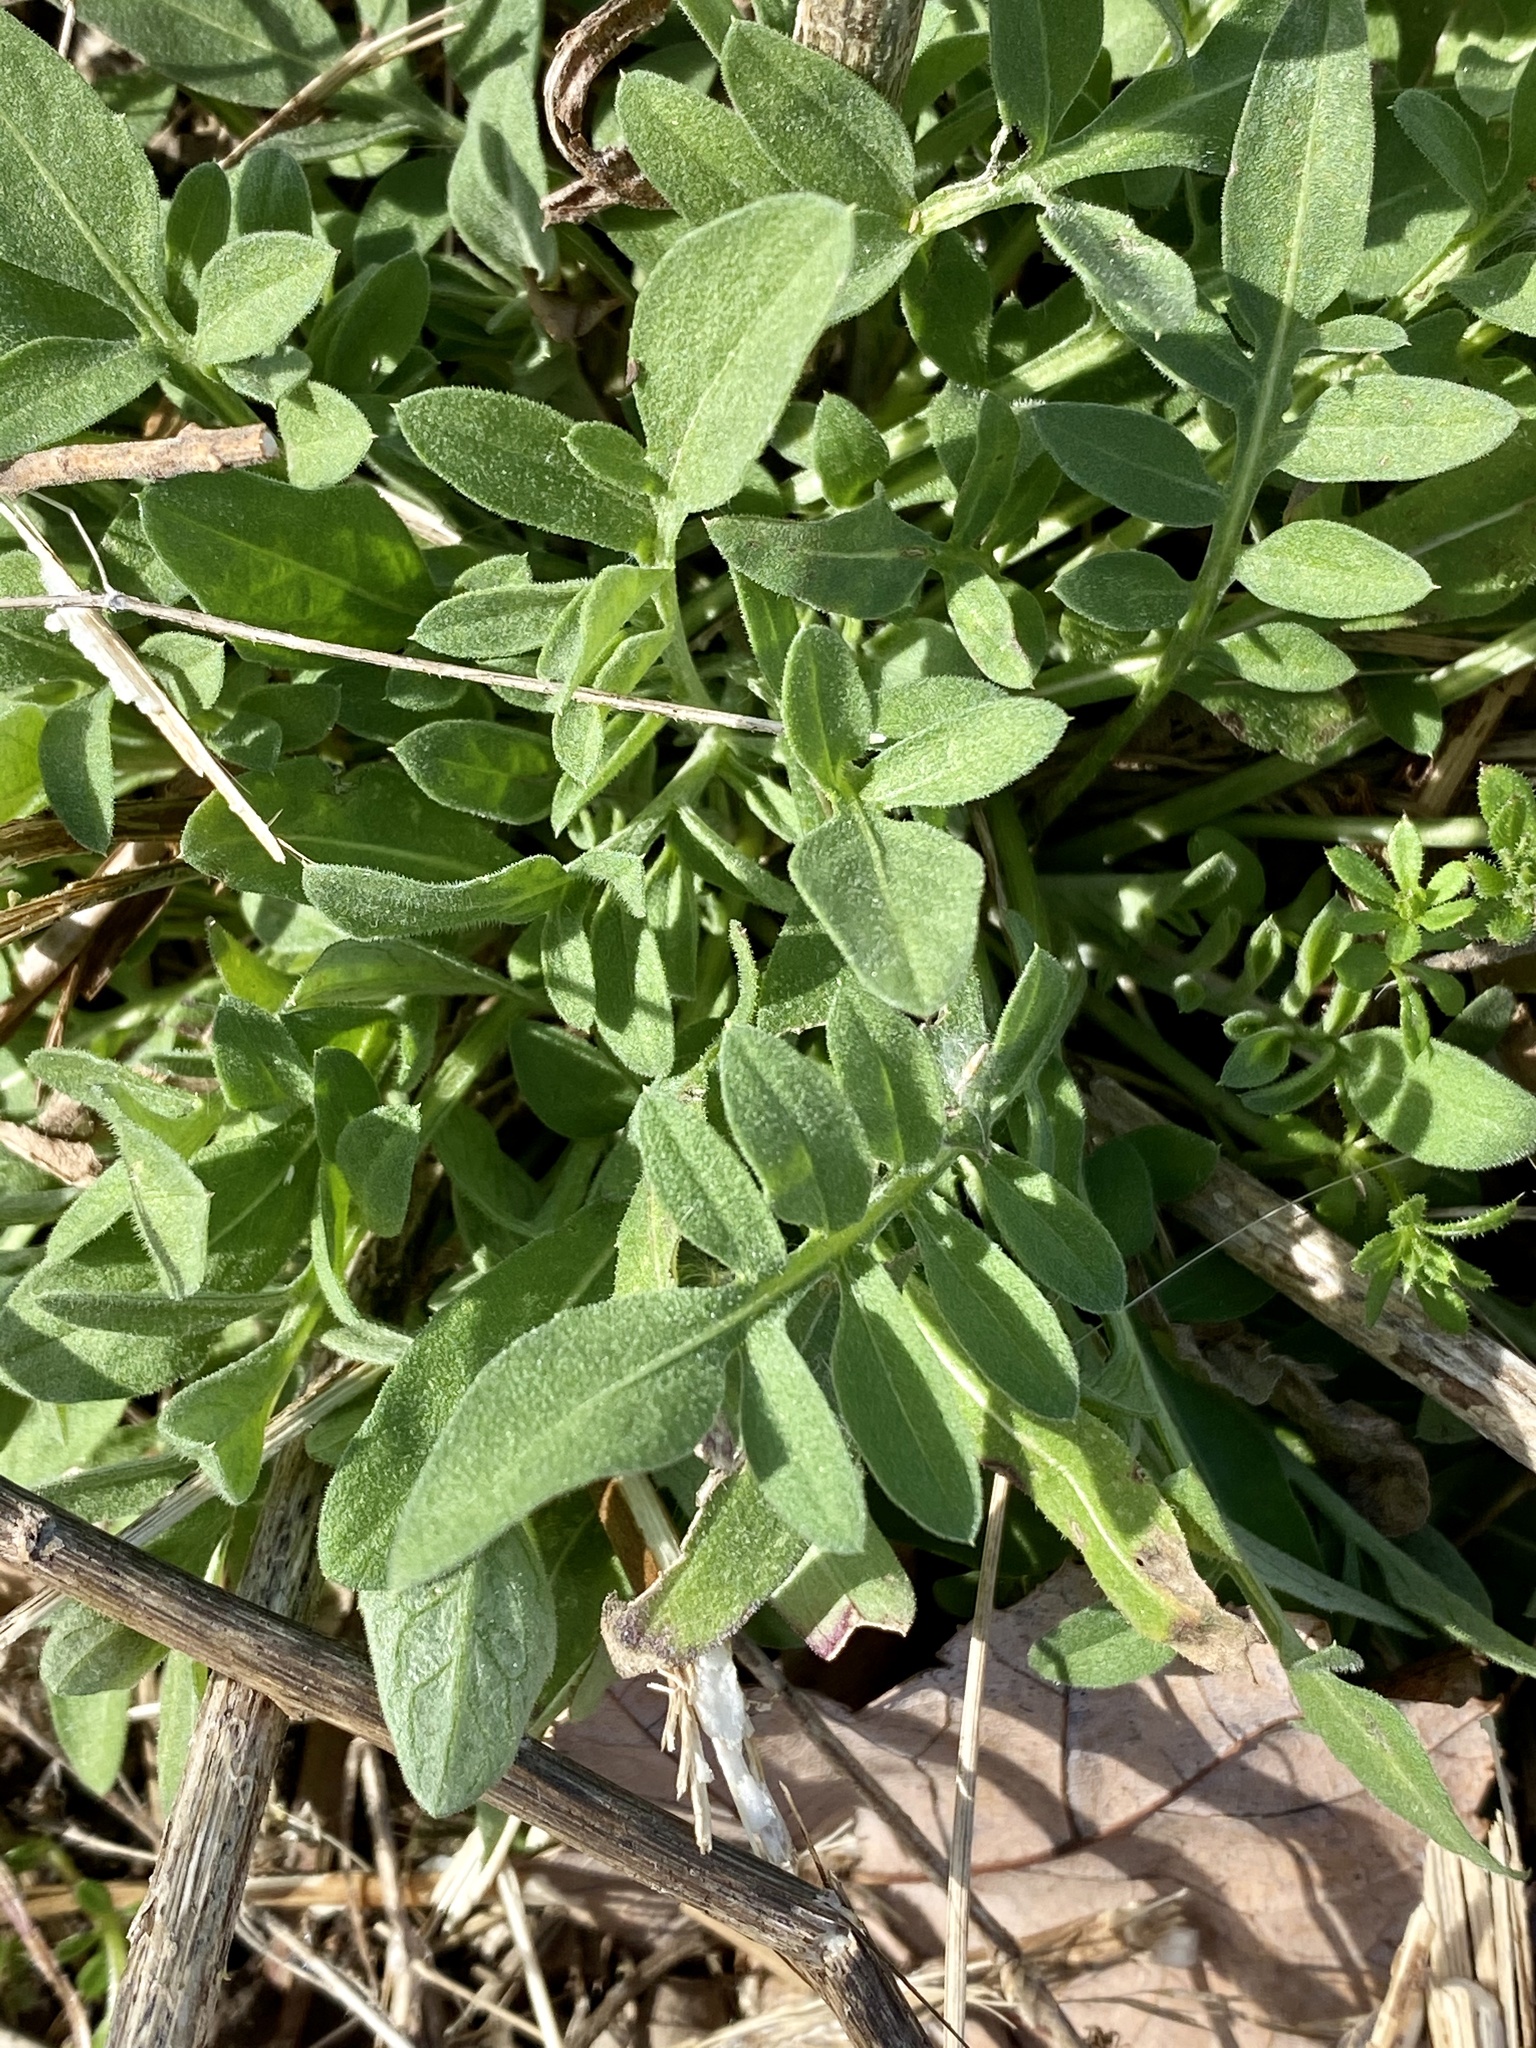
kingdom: Plantae
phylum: Tracheophyta
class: Magnoliopsida
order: Asterales
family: Asteraceae
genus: Centaurea
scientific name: Centaurea stoebe
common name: Spotted knapweed
